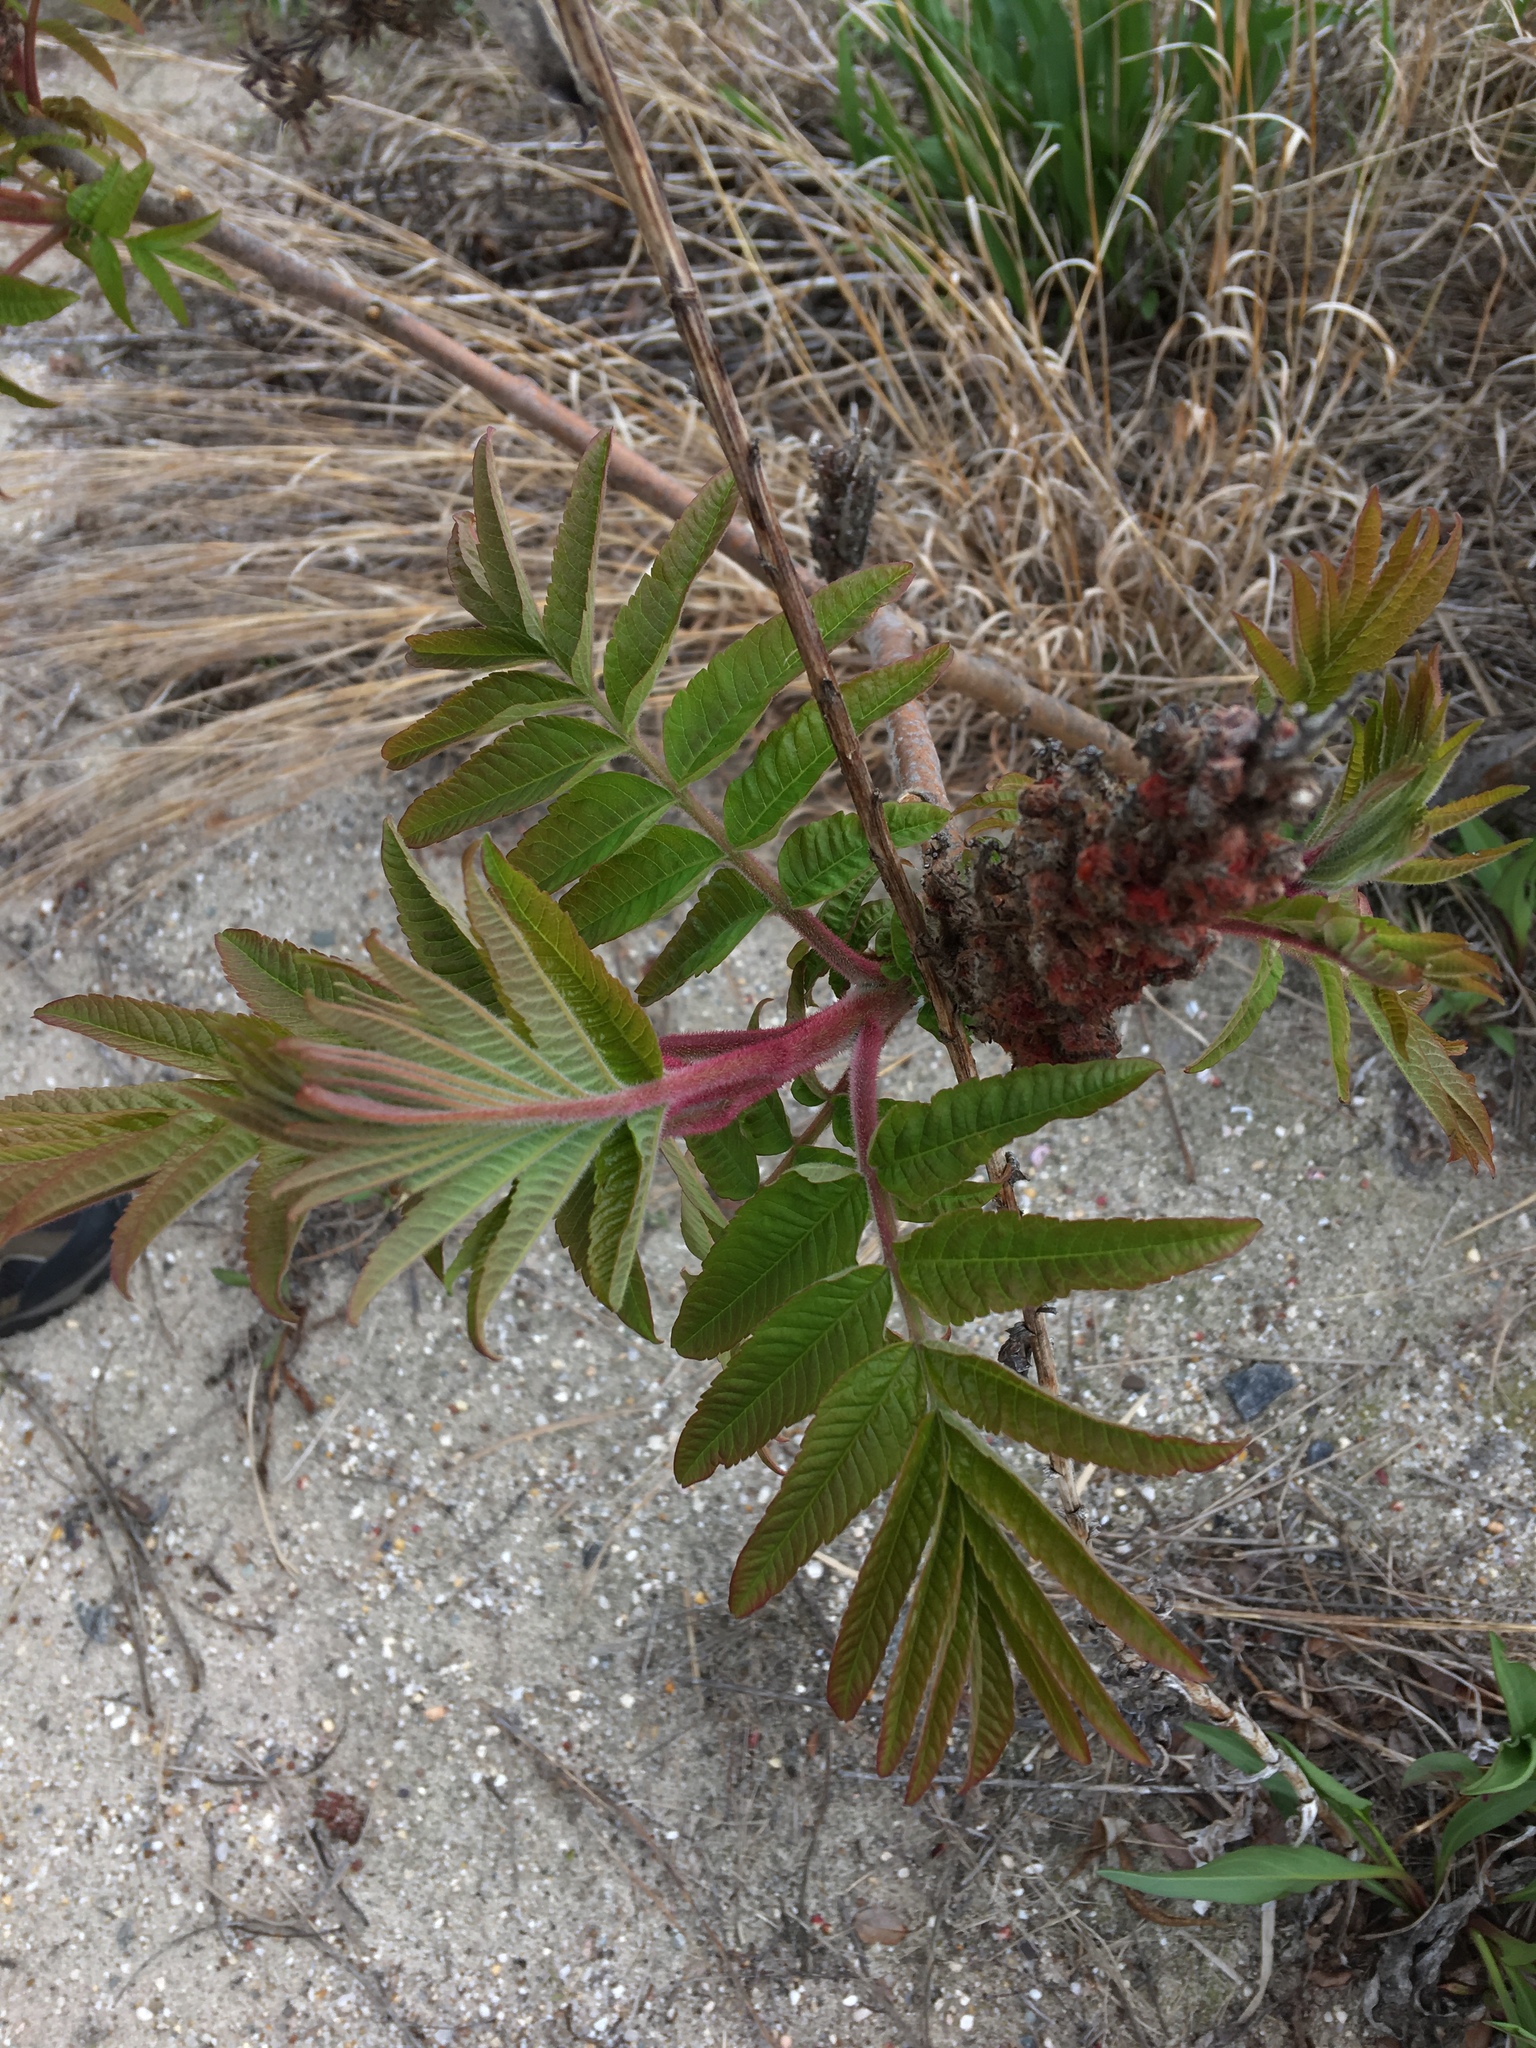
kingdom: Plantae
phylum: Tracheophyta
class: Magnoliopsida
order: Sapindales
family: Anacardiaceae
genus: Rhus
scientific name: Rhus typhina
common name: Staghorn sumac
